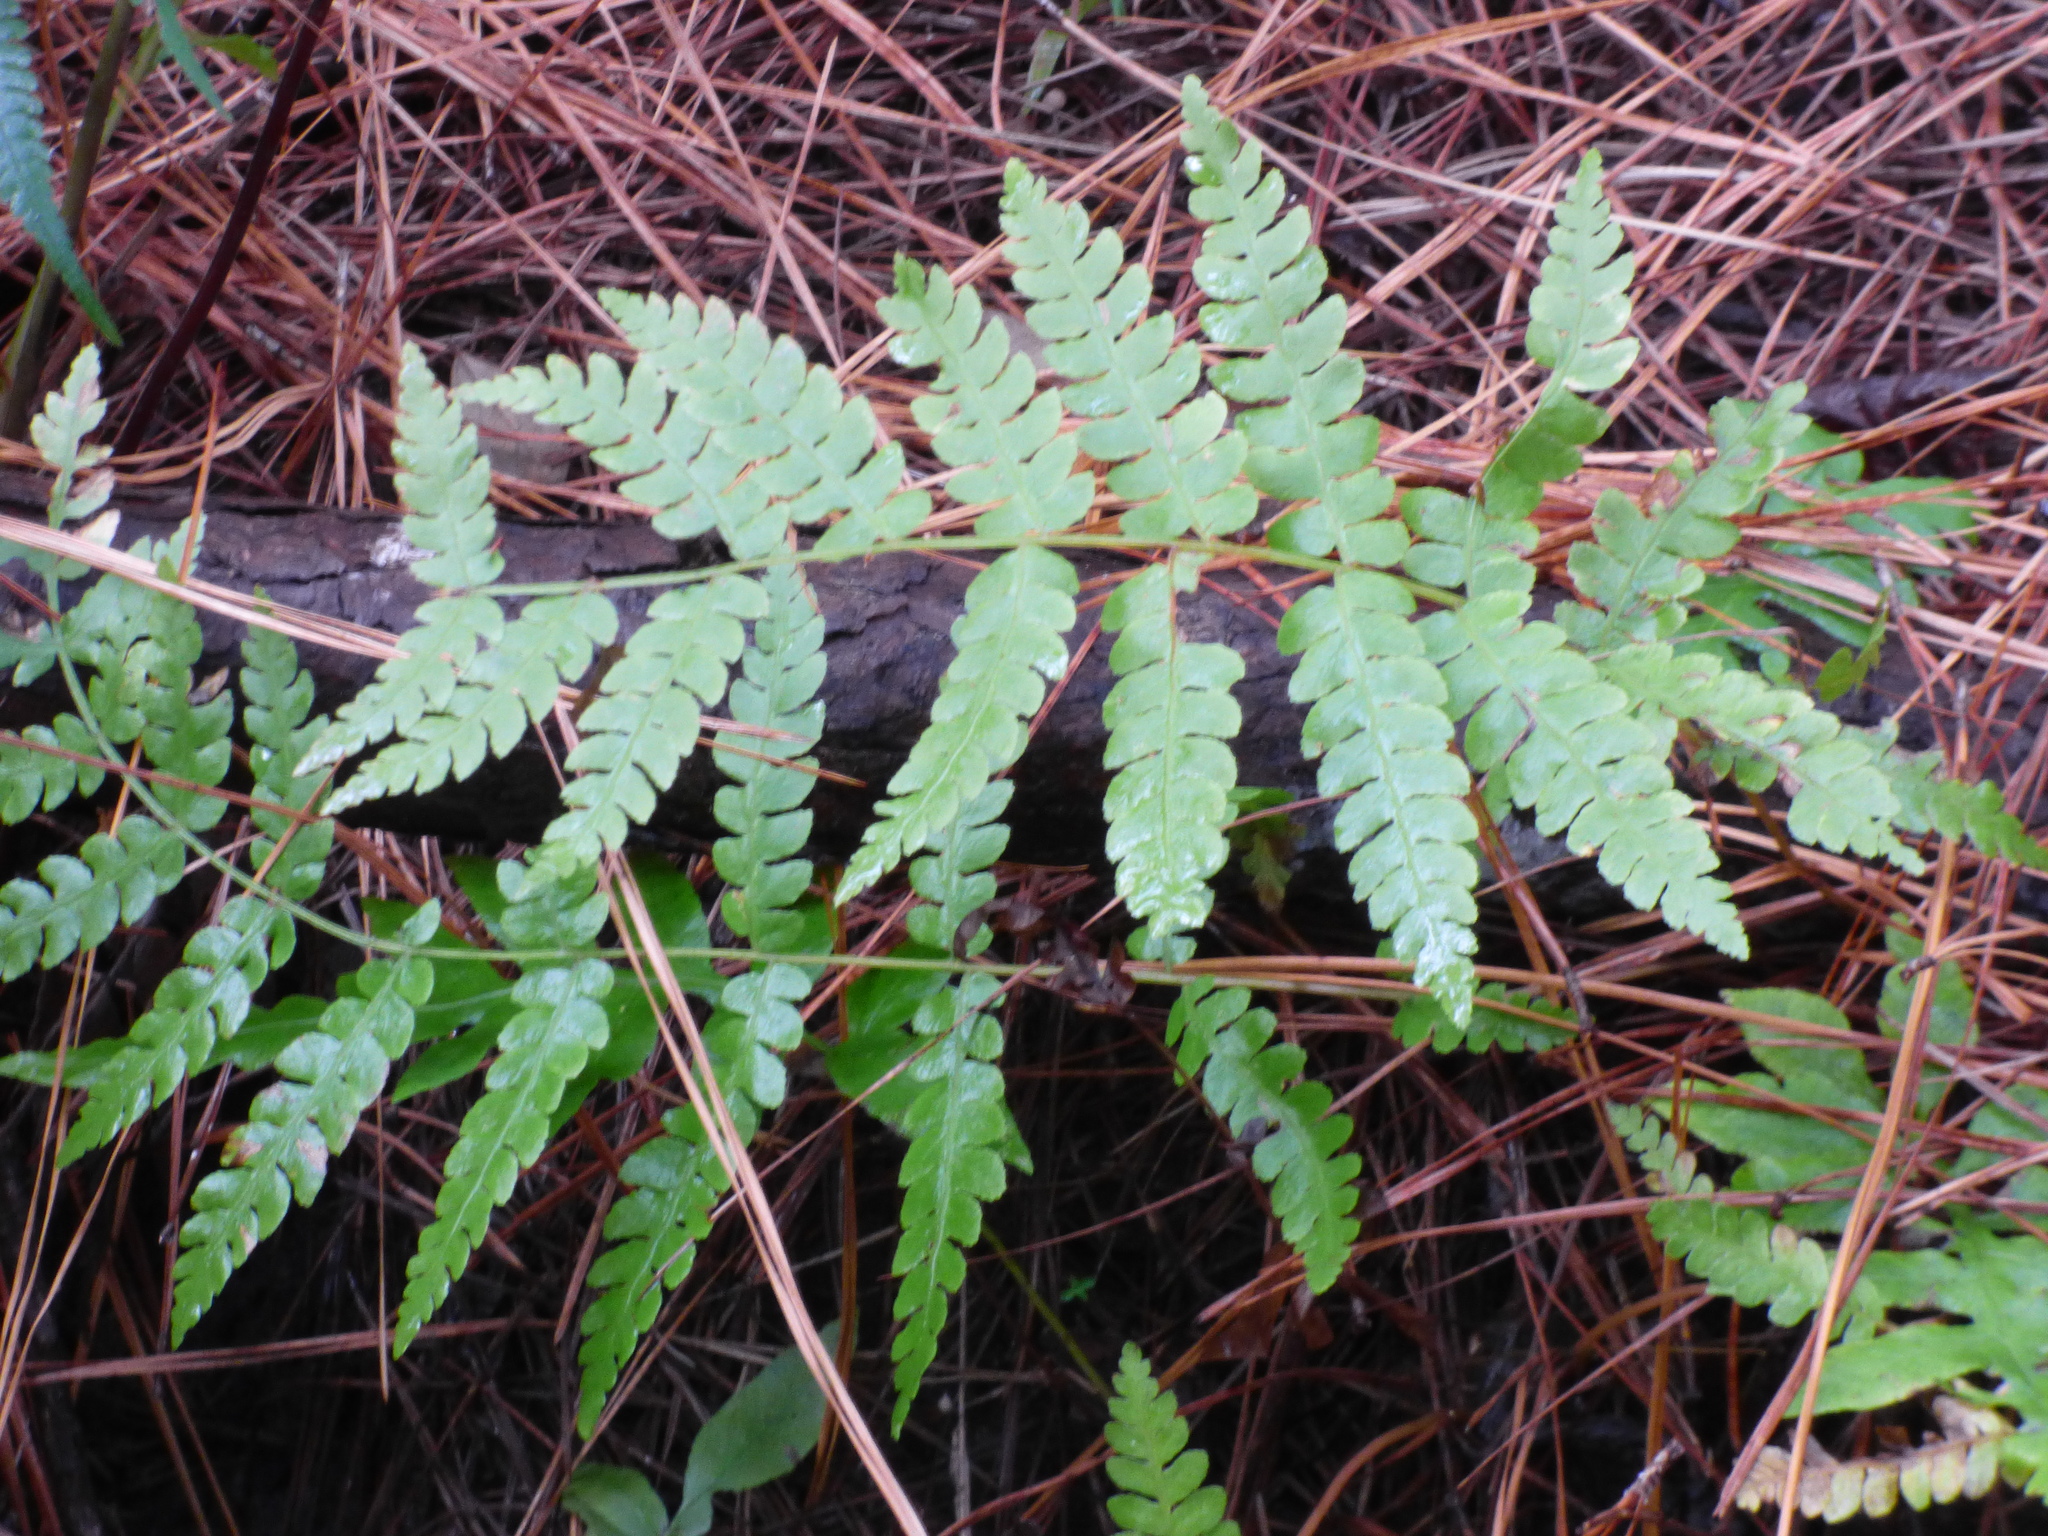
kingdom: Plantae
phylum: Tracheophyta
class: Polypodiopsida
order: Osmundales
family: Osmundaceae
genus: Osmundastrum
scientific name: Osmundastrum cinnamomeum
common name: Cinnamon fern
